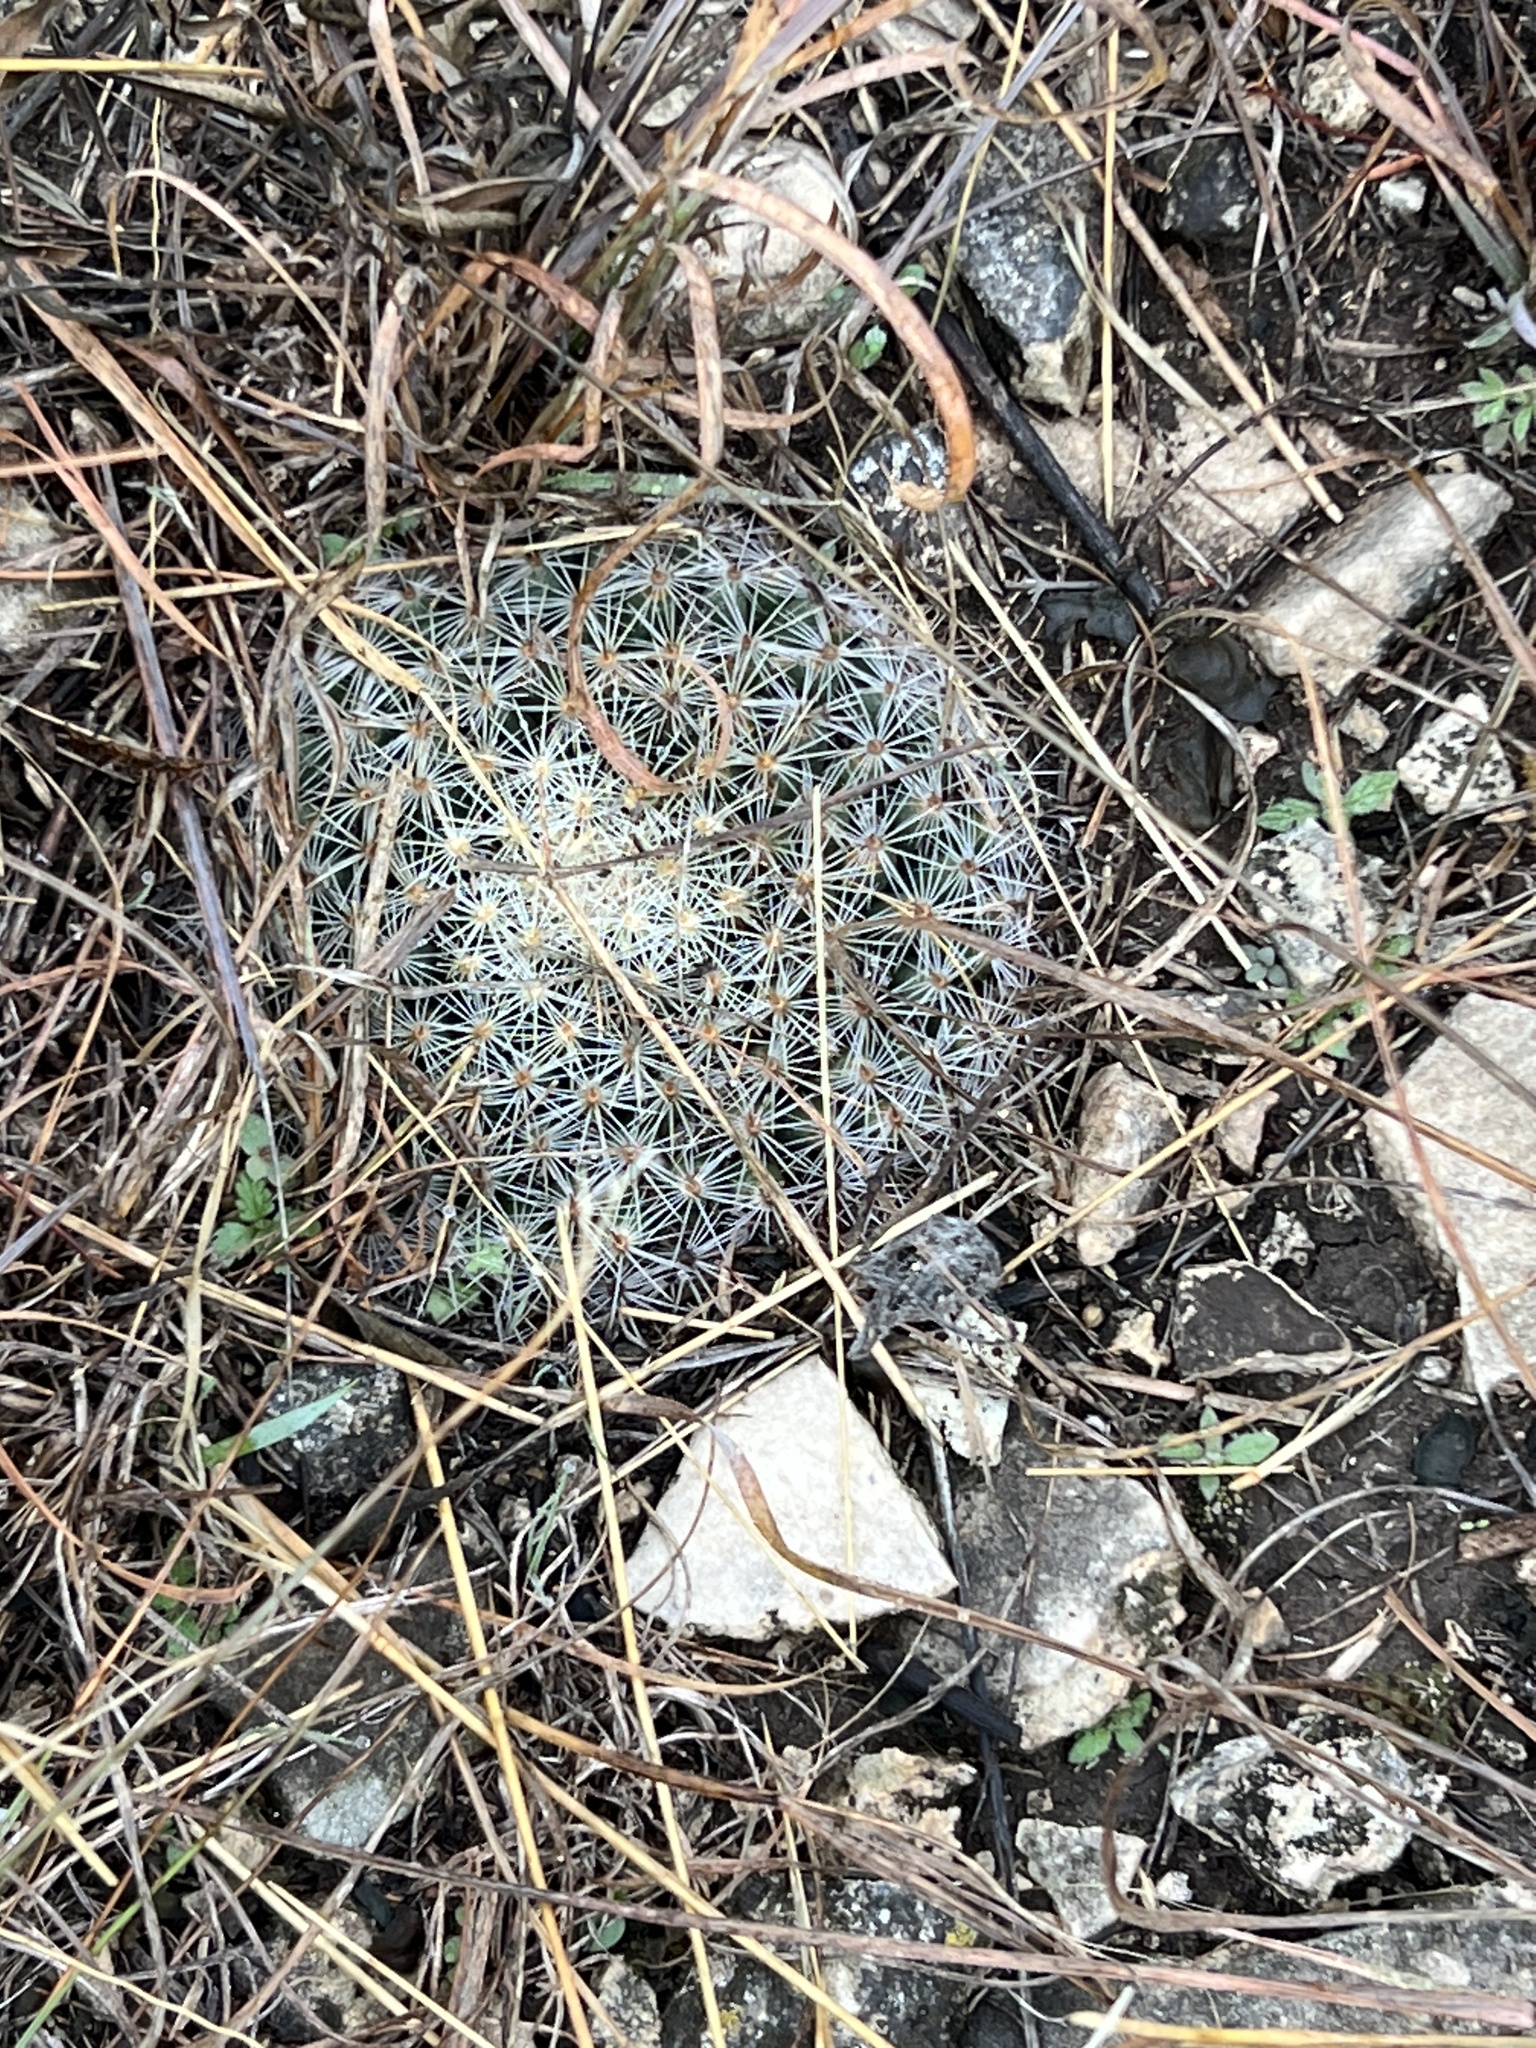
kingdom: Plantae
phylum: Tracheophyta
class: Magnoliopsida
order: Caryophyllales
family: Cactaceae
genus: Mammillaria
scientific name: Mammillaria heyderi
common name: Little nipple cactus
